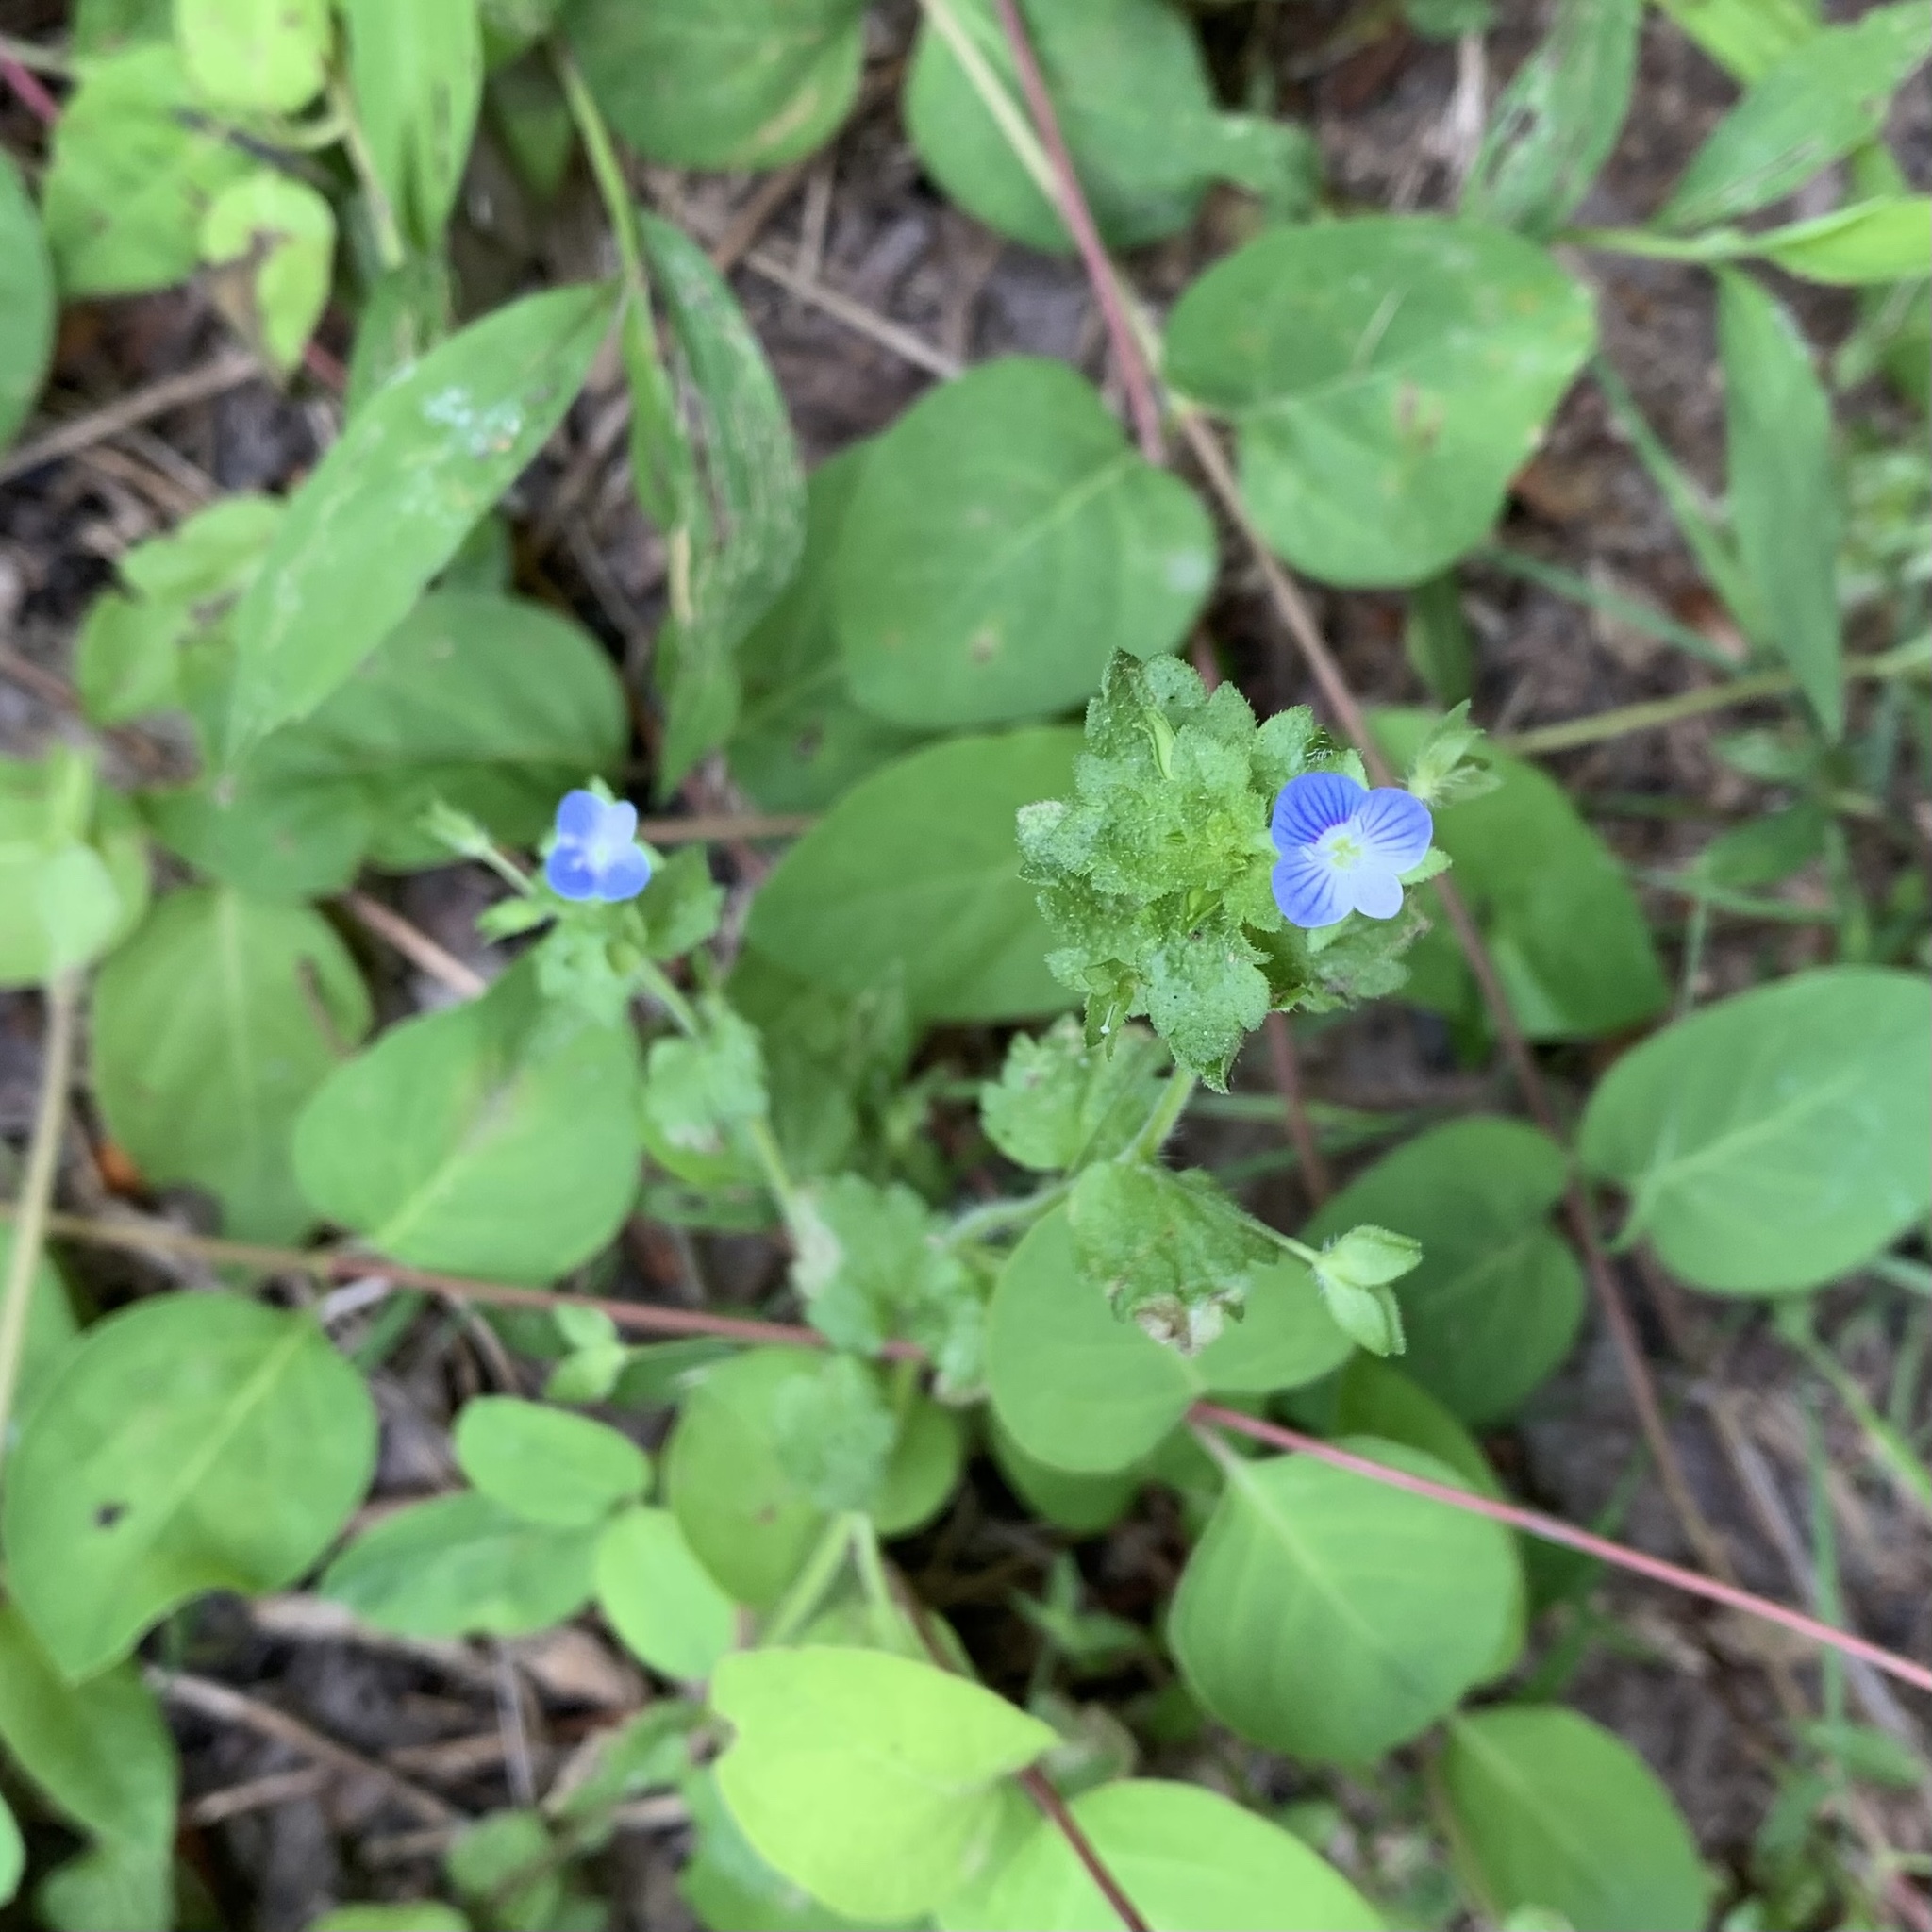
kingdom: Plantae
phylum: Tracheophyta
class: Magnoliopsida
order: Lamiales
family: Plantaginaceae
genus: Veronica
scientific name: Veronica persica
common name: Common field-speedwell
